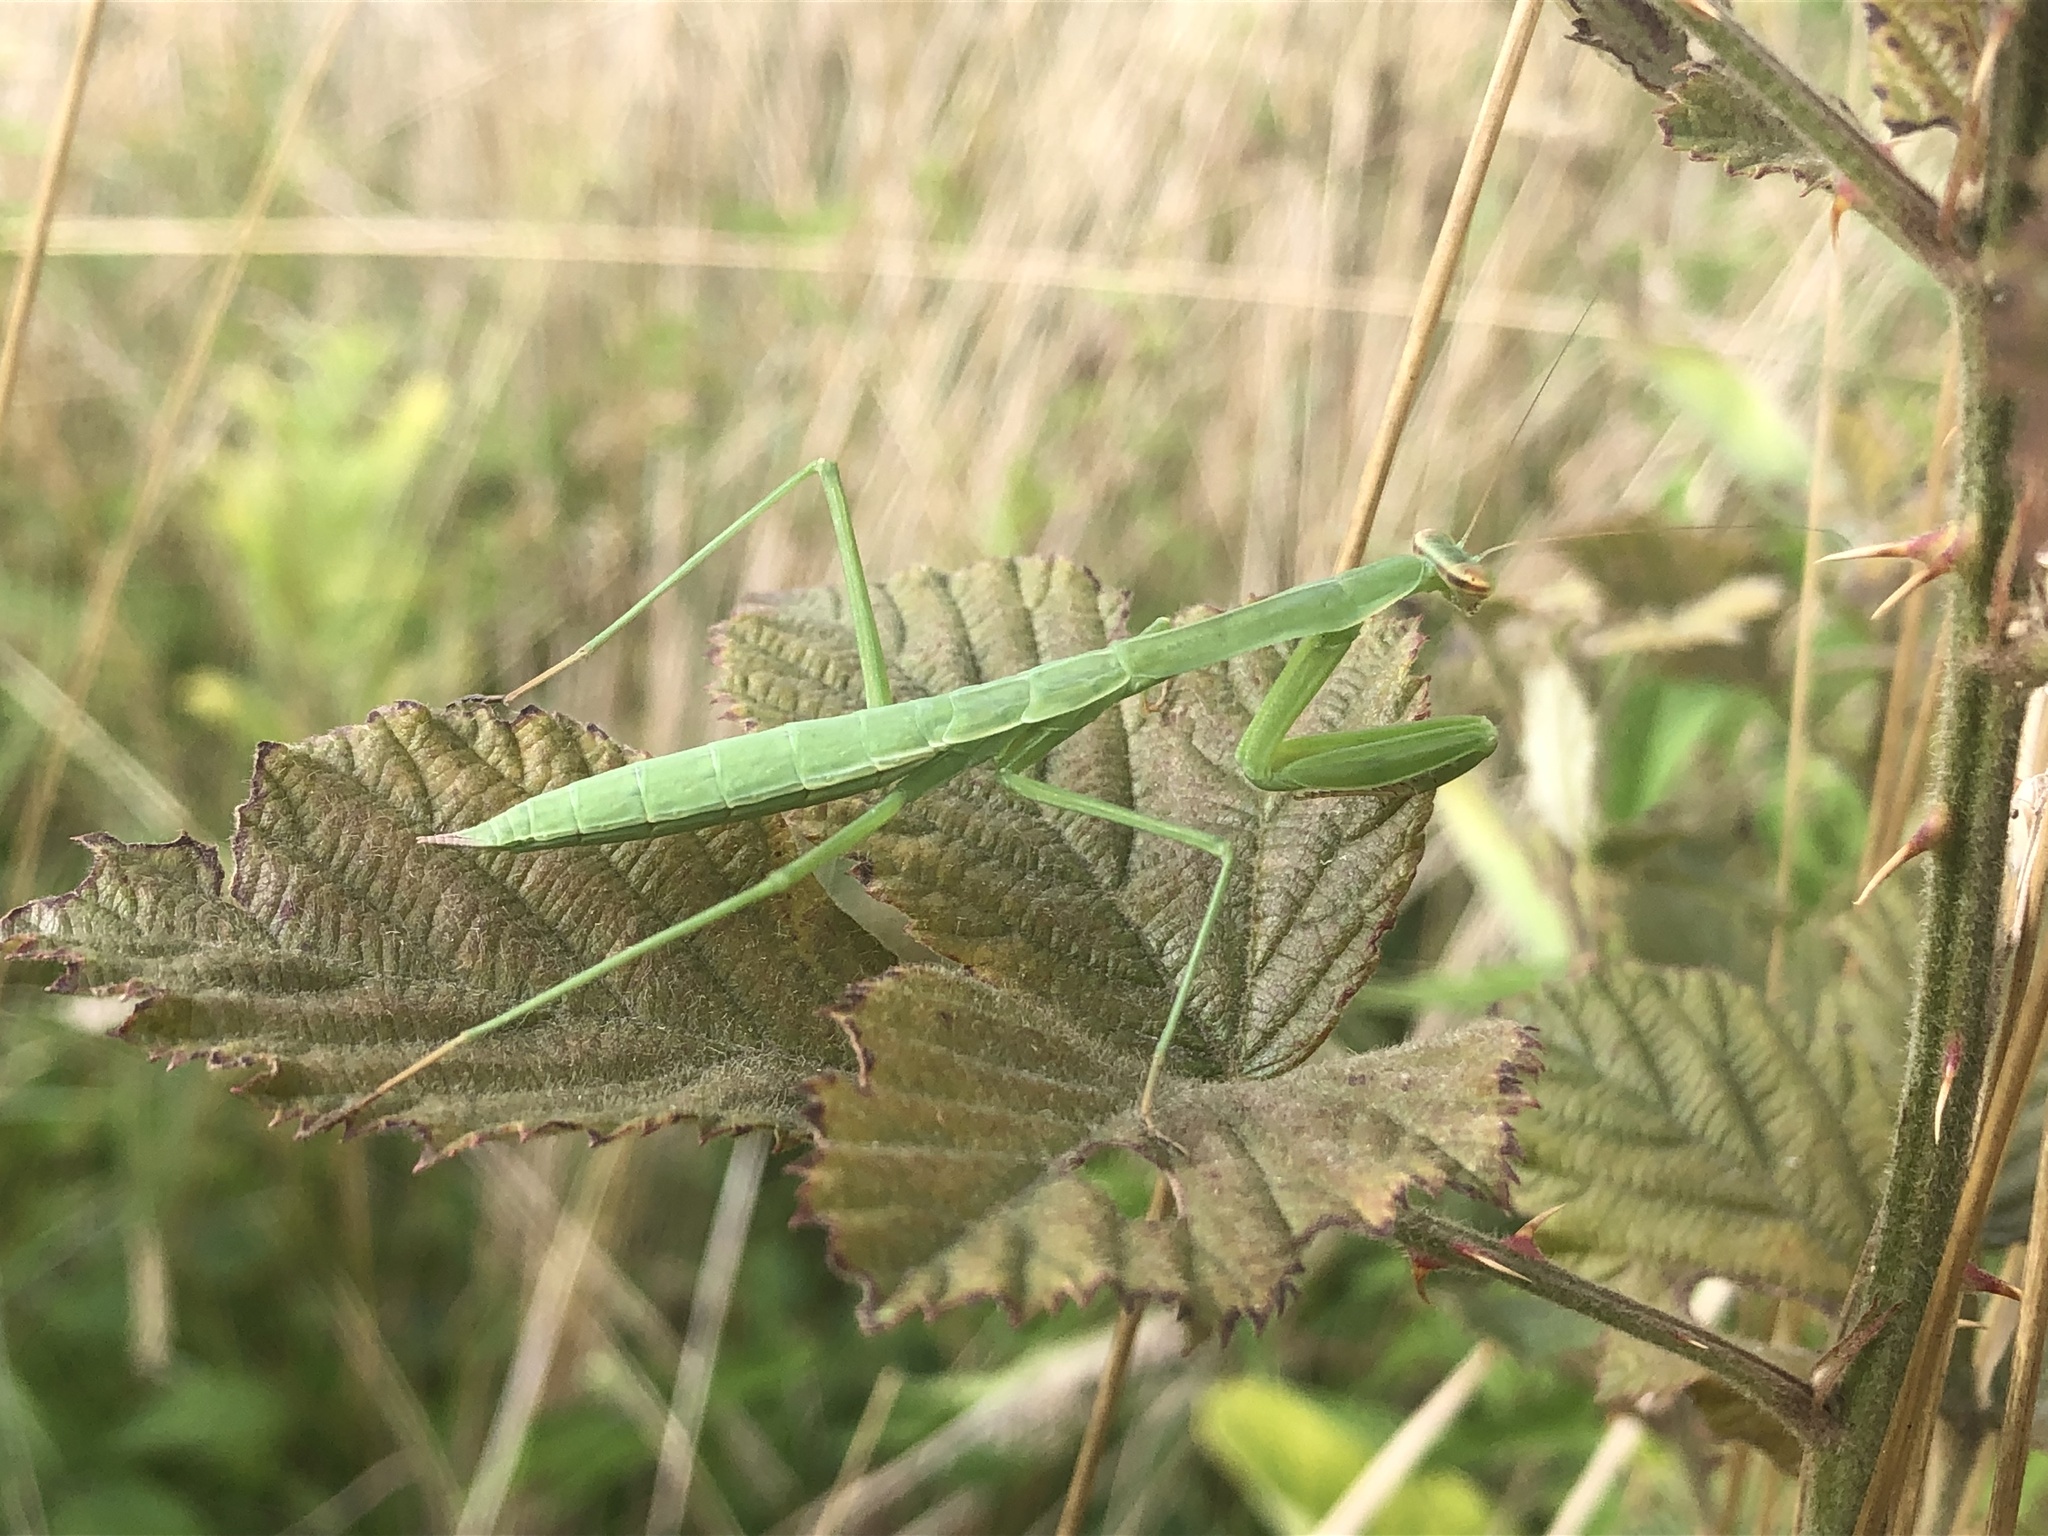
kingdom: Animalia
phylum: Arthropoda
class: Insecta
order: Mantodea
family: Mantidae
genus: Tenodera
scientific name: Tenodera sinensis
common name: Chinese mantis
